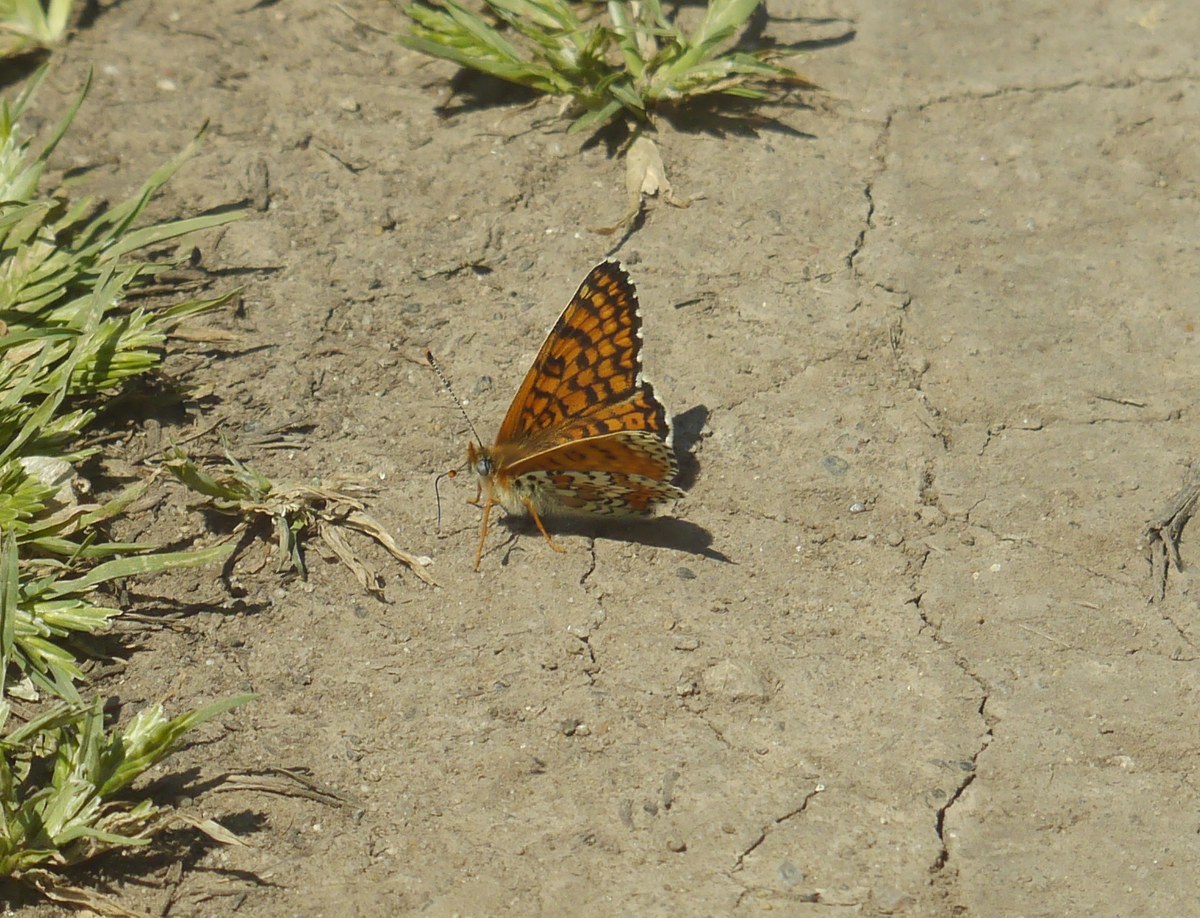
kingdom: Animalia
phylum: Arthropoda
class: Insecta
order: Lepidoptera
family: Nymphalidae
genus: Melitaea
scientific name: Melitaea cinxia
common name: Glanville fritillary
